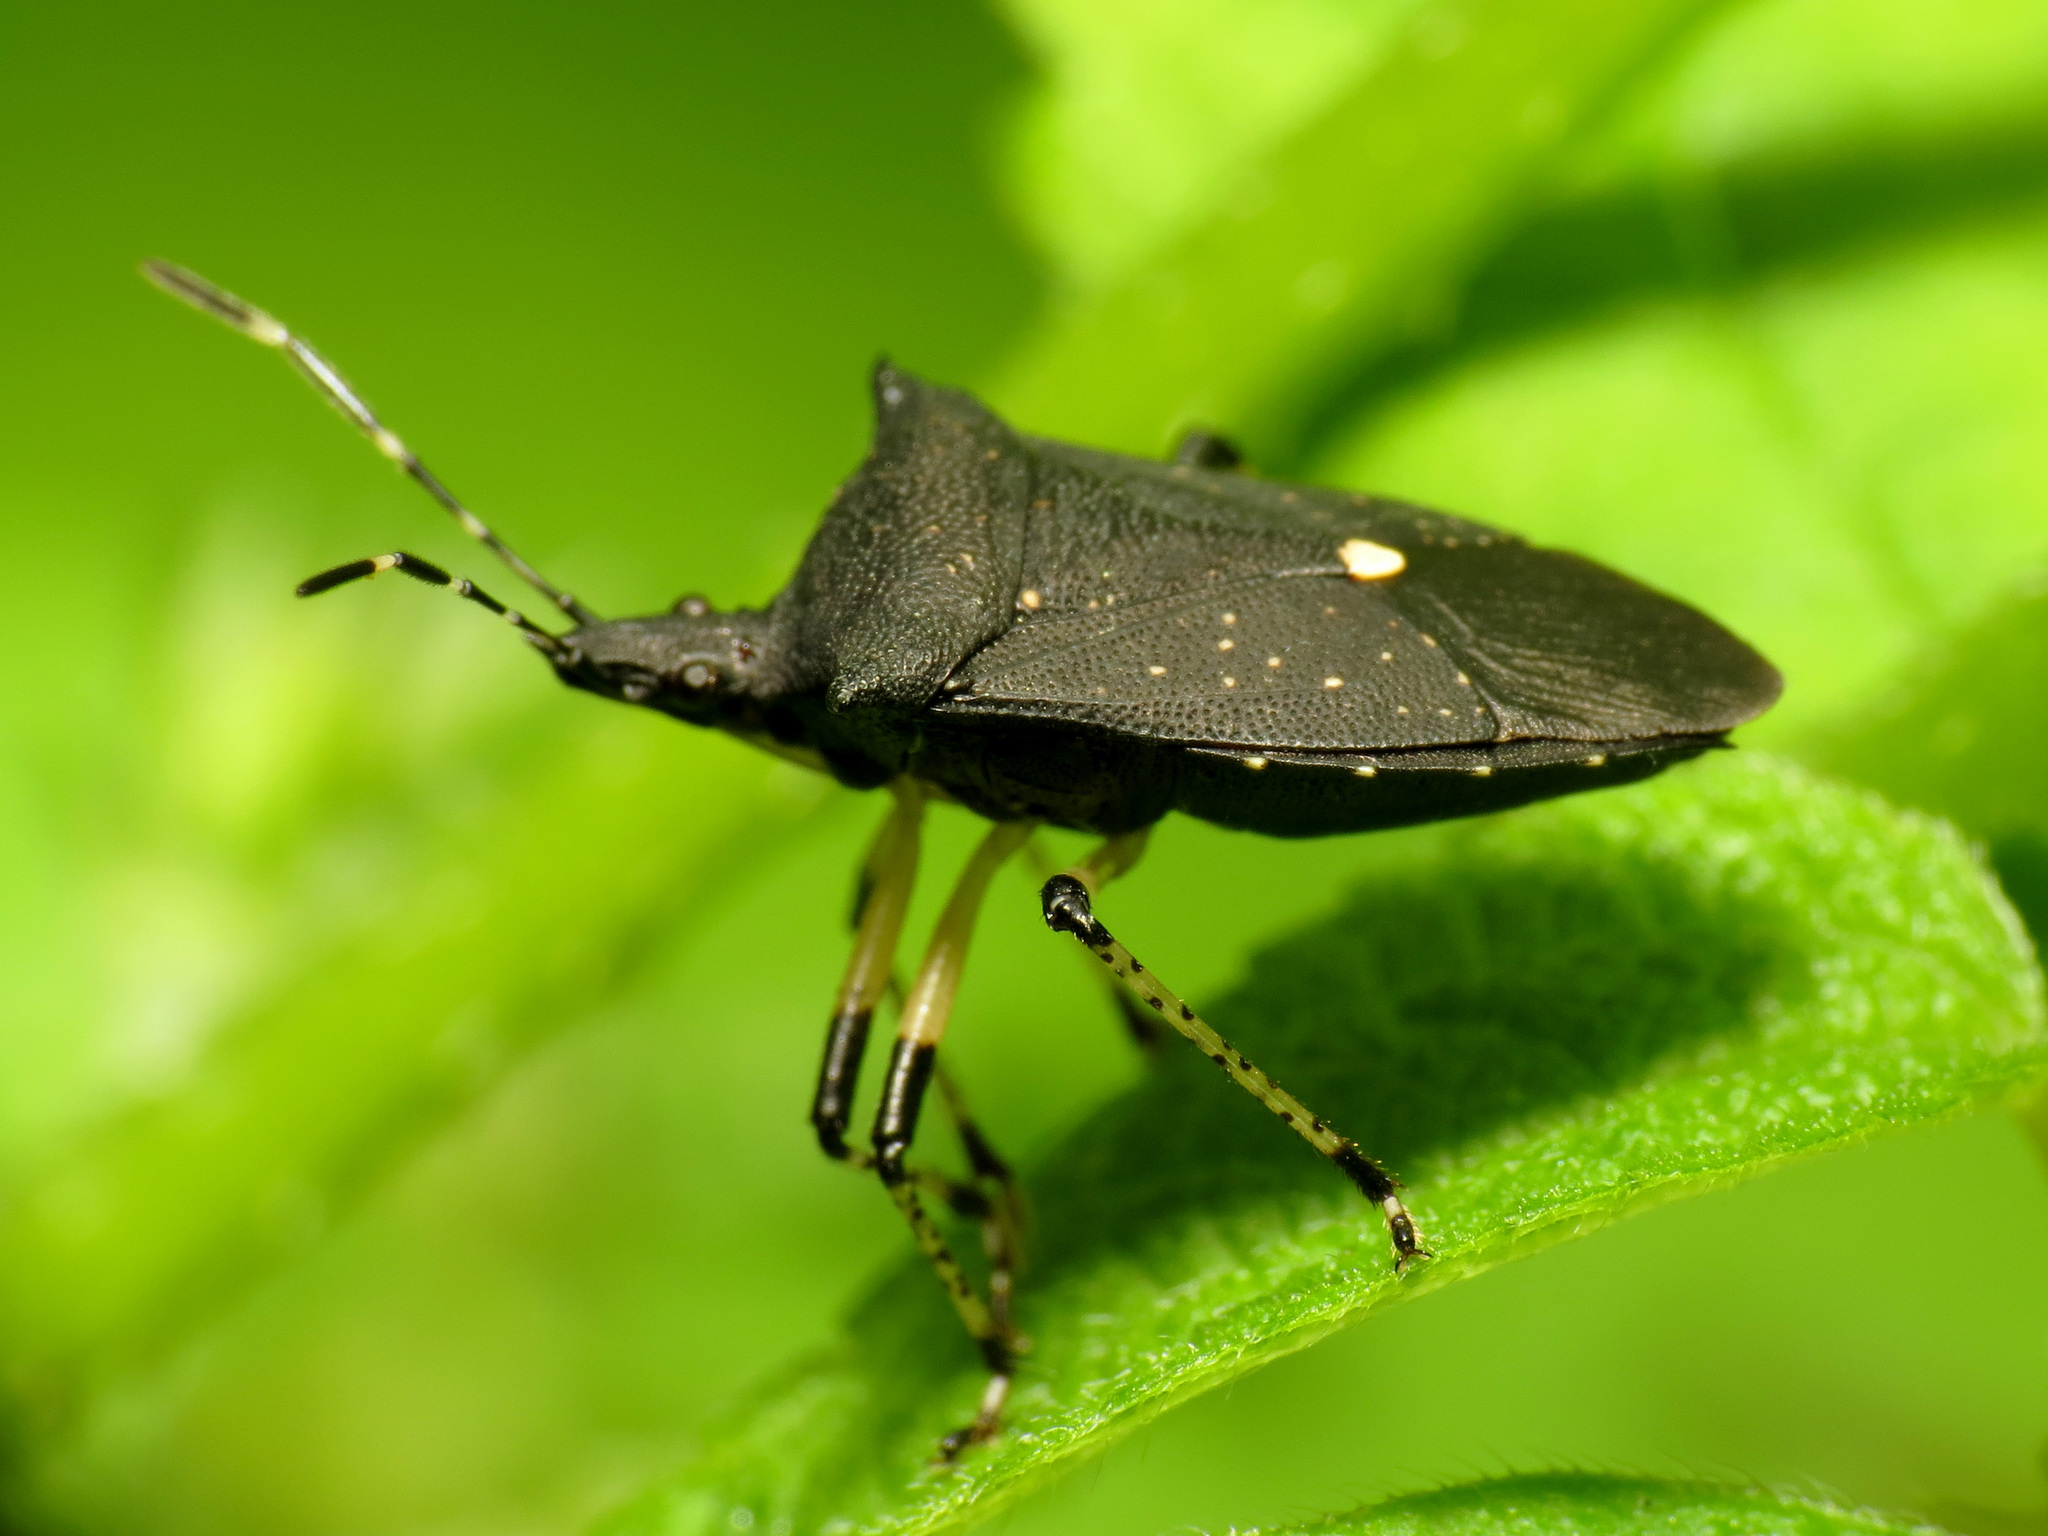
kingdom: Animalia
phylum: Arthropoda
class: Insecta
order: Hemiptera
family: Pentatomidae
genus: Proxys
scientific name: Proxys punctulatus
